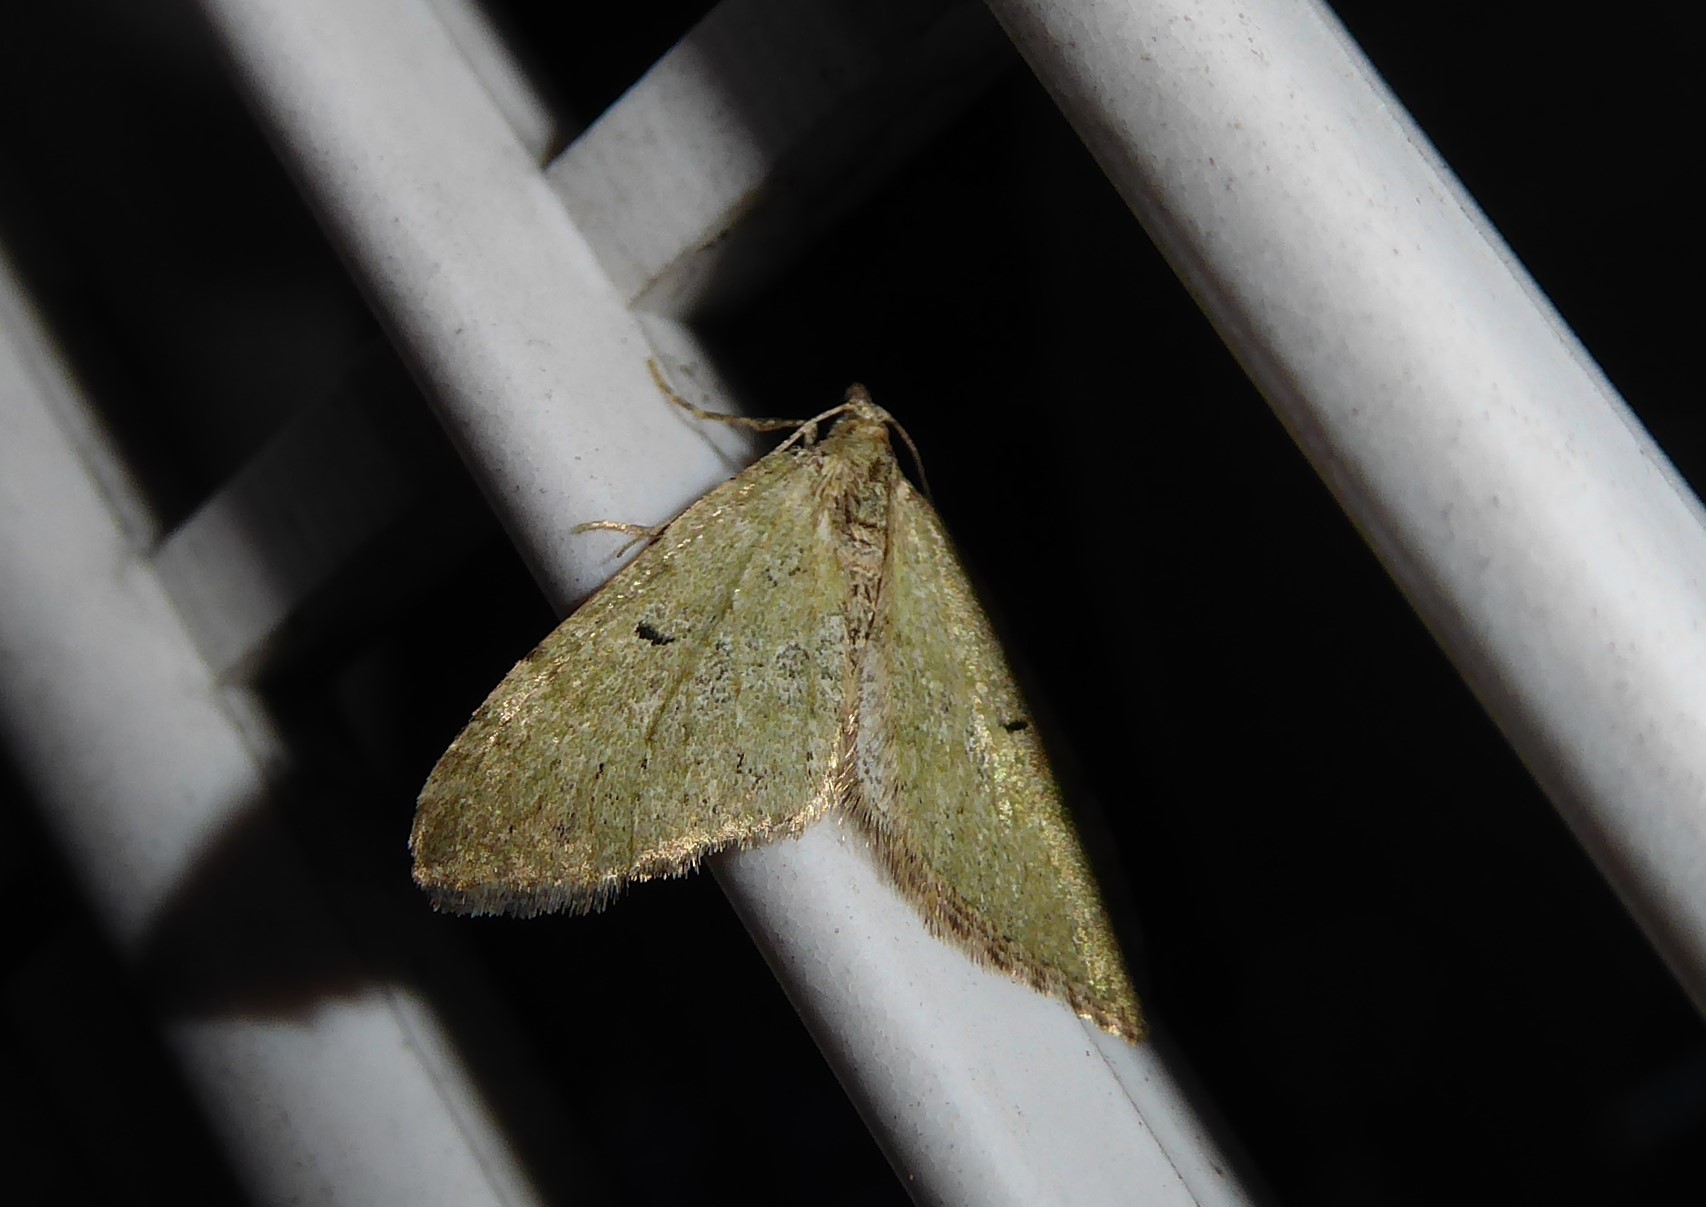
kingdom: Animalia
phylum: Arthropoda
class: Insecta
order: Lepidoptera
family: Geometridae
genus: Epyaxa
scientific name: Epyaxa rosearia
